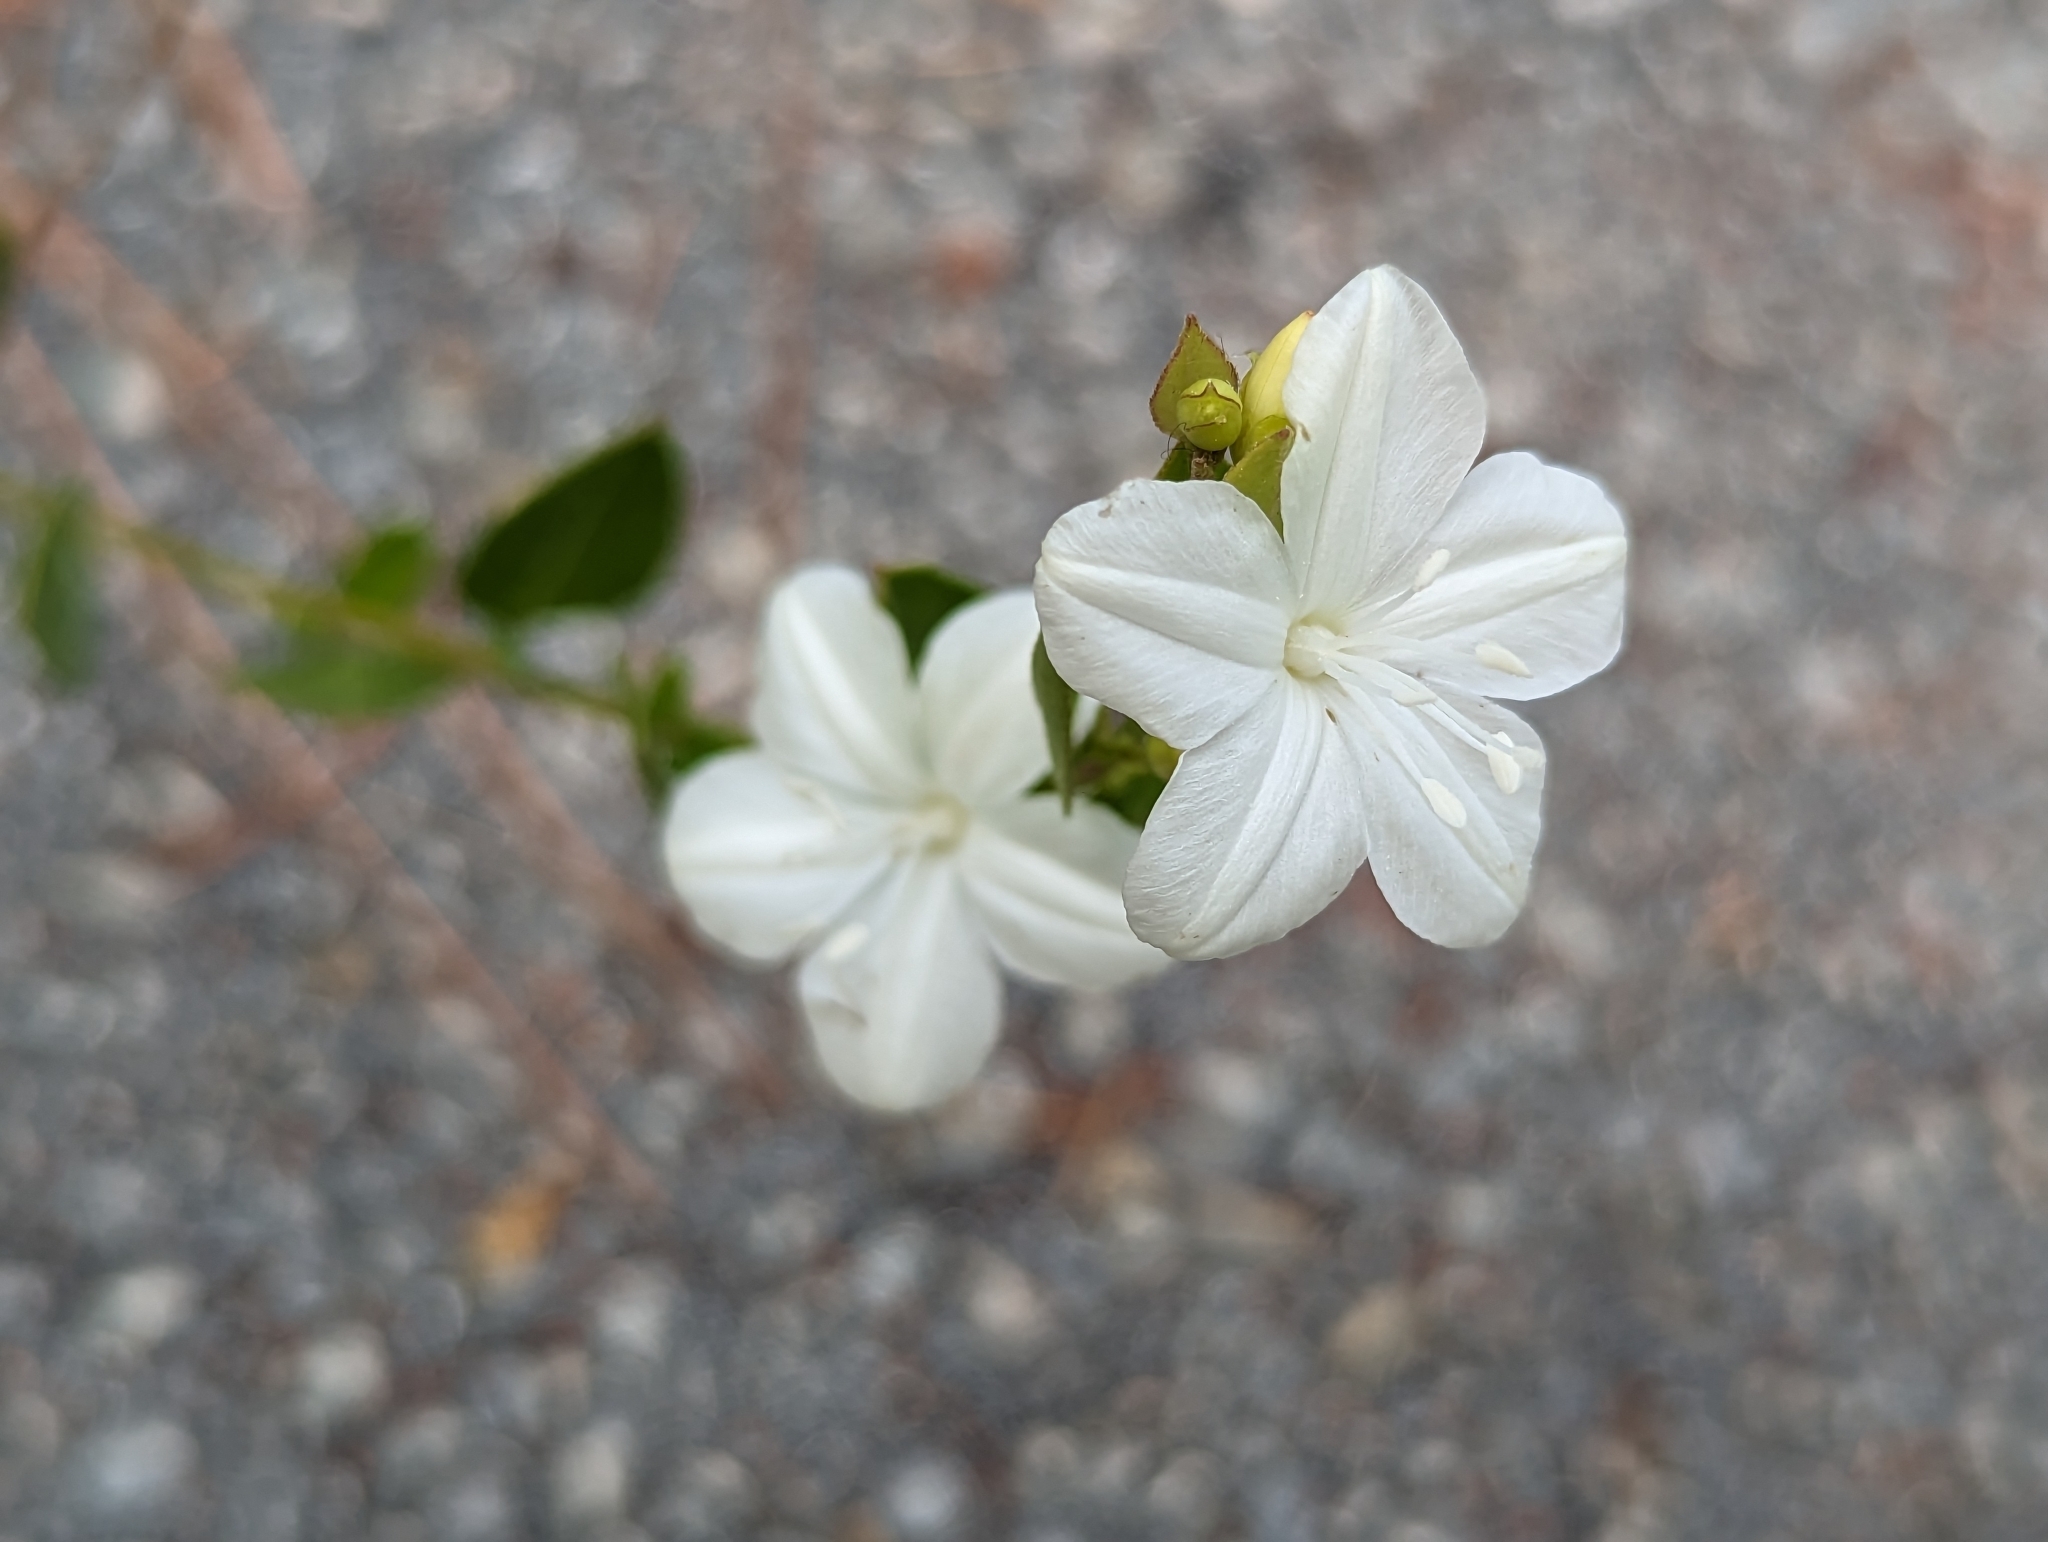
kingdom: Plantae
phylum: Tracheophyta
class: Magnoliopsida
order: Solanales
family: Convolvulaceae
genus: Jacquemontia
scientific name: Jacquemontia curtissii
